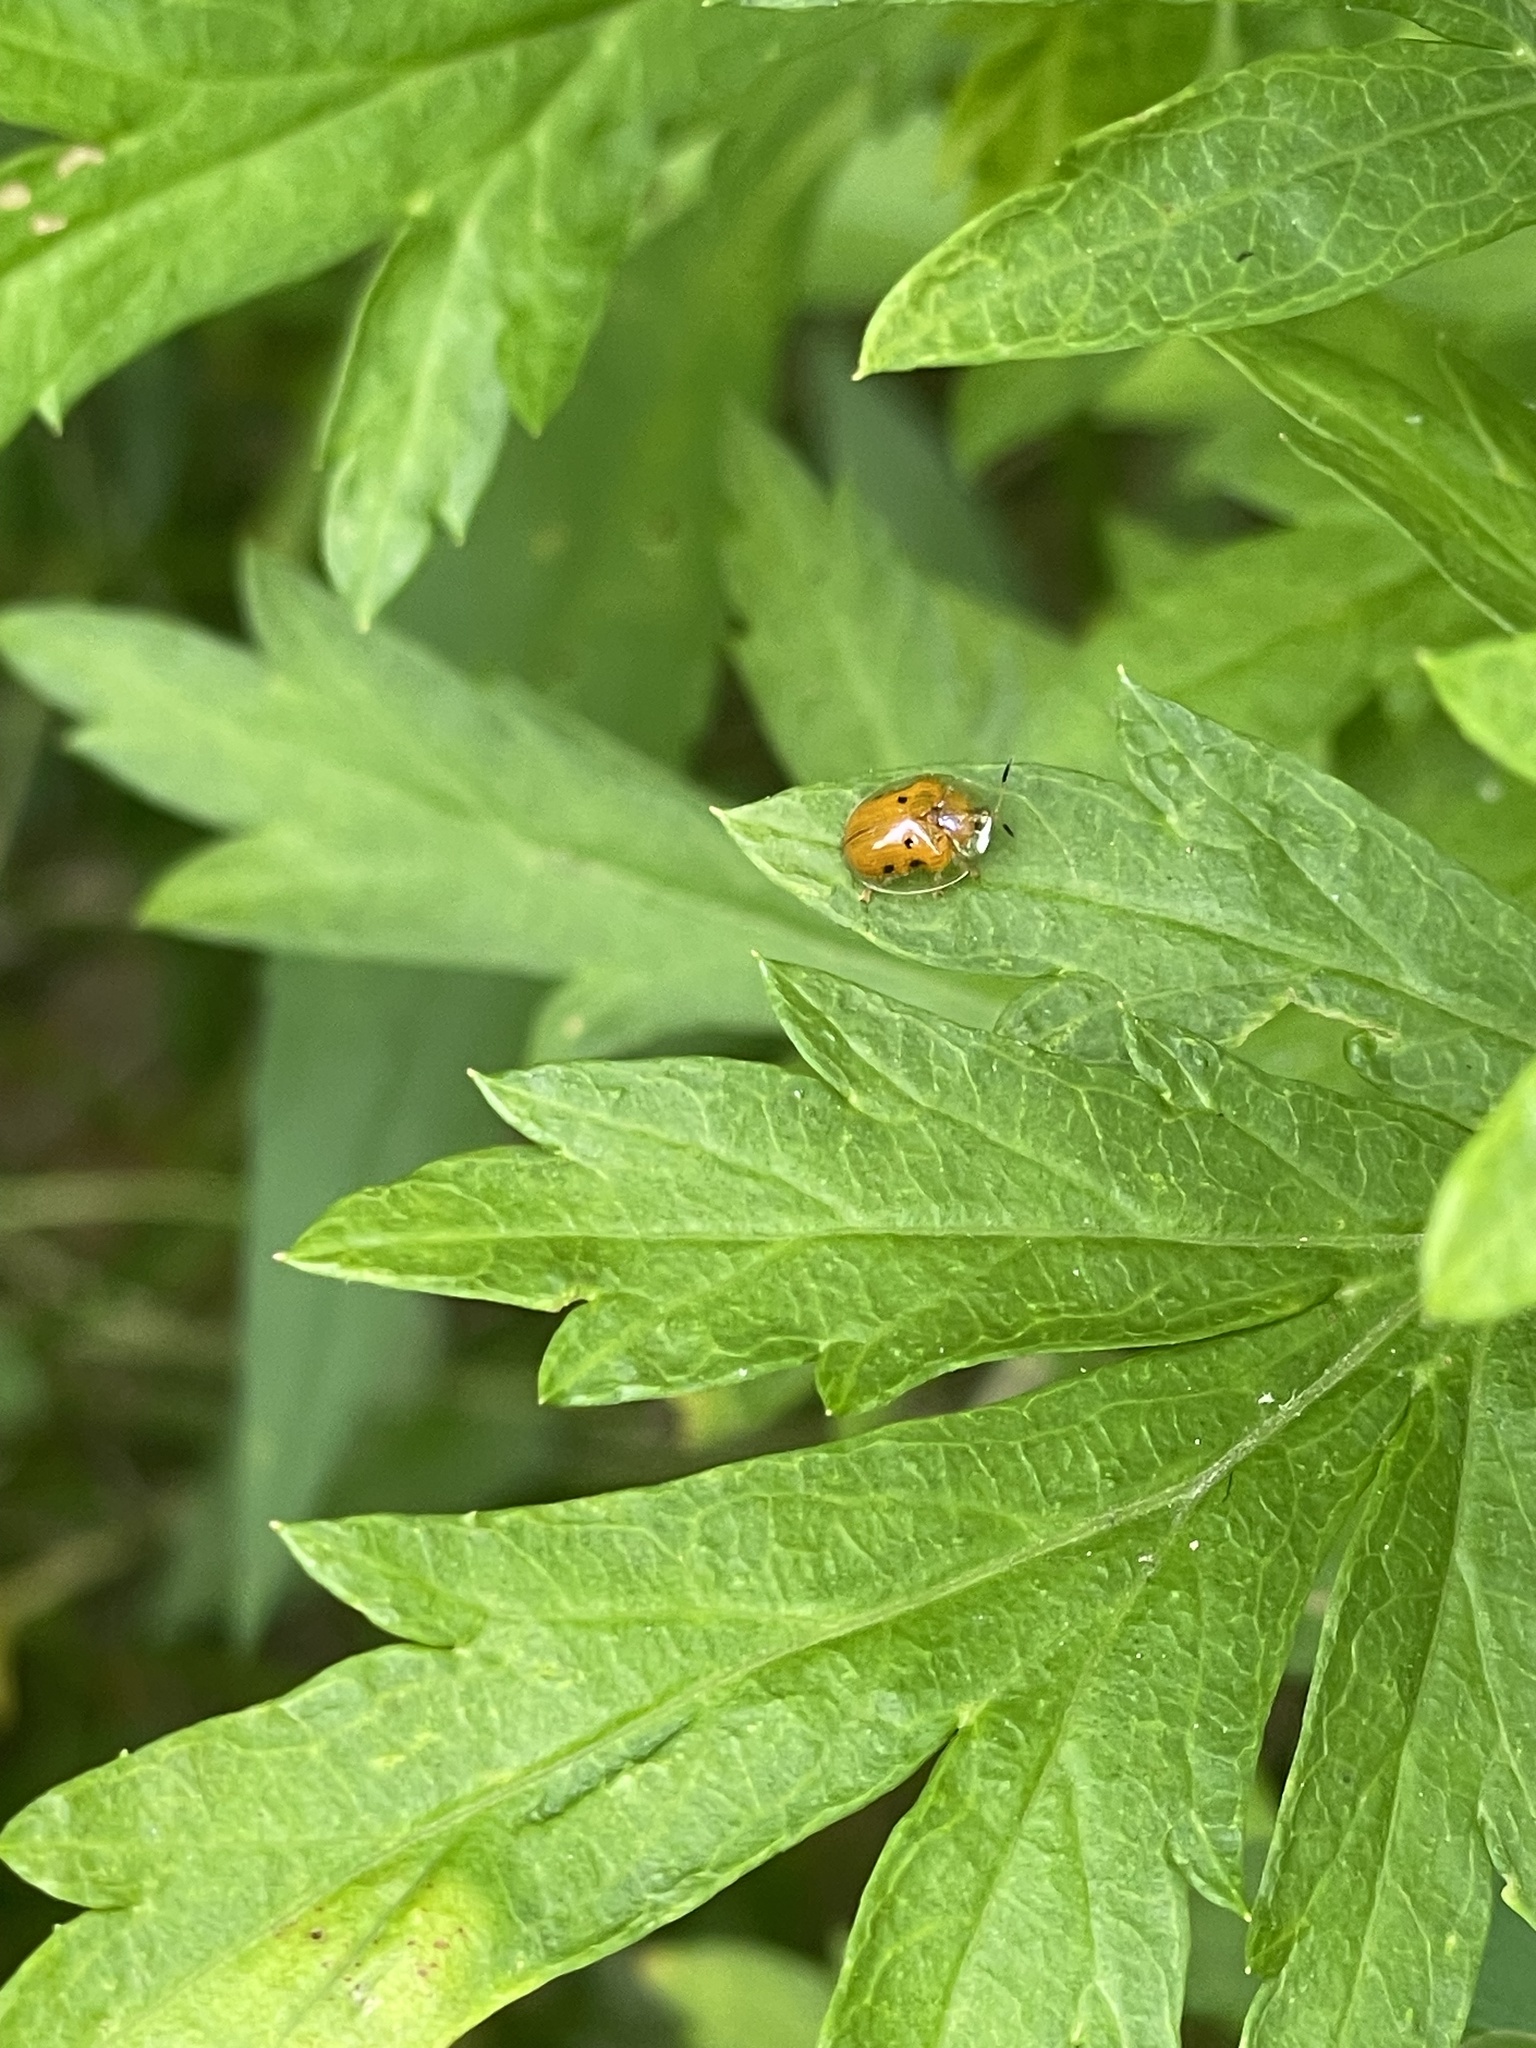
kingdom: Animalia
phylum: Arthropoda
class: Insecta
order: Coleoptera
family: Chrysomelidae
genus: Charidotella
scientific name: Charidotella sexpunctata
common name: Golden tortoise beetle
